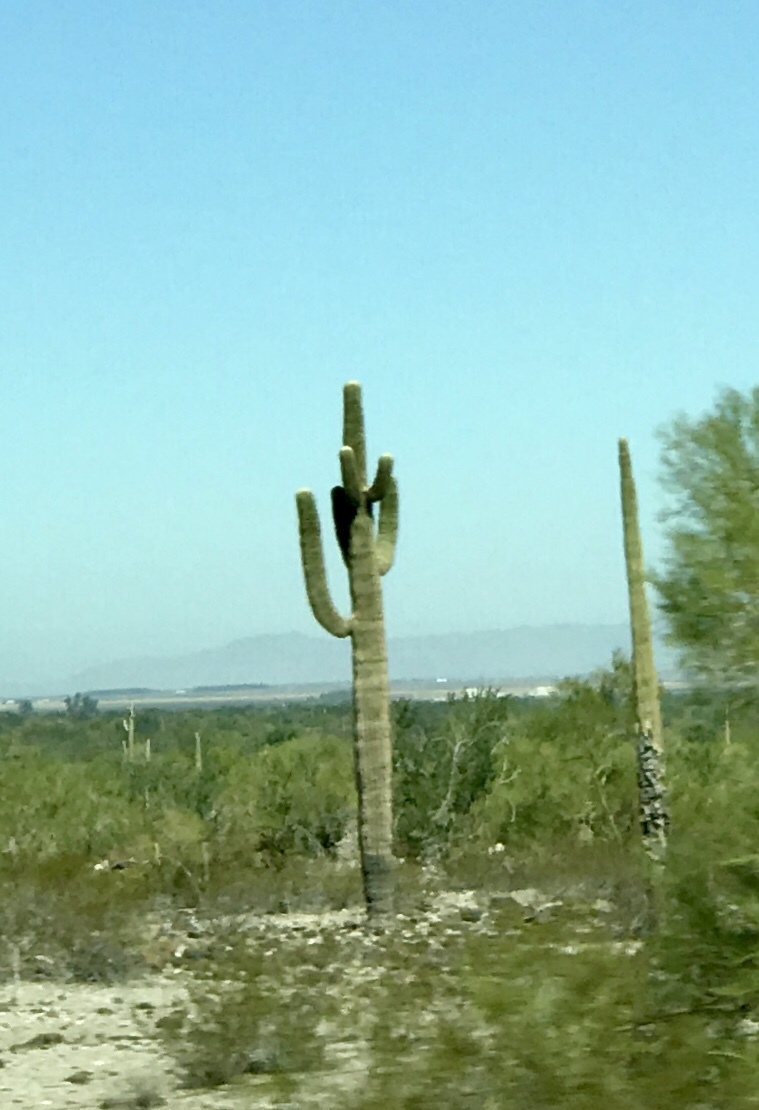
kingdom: Plantae
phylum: Tracheophyta
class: Magnoliopsida
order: Caryophyllales
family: Cactaceae
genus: Carnegiea
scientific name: Carnegiea gigantea
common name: Saguaro
